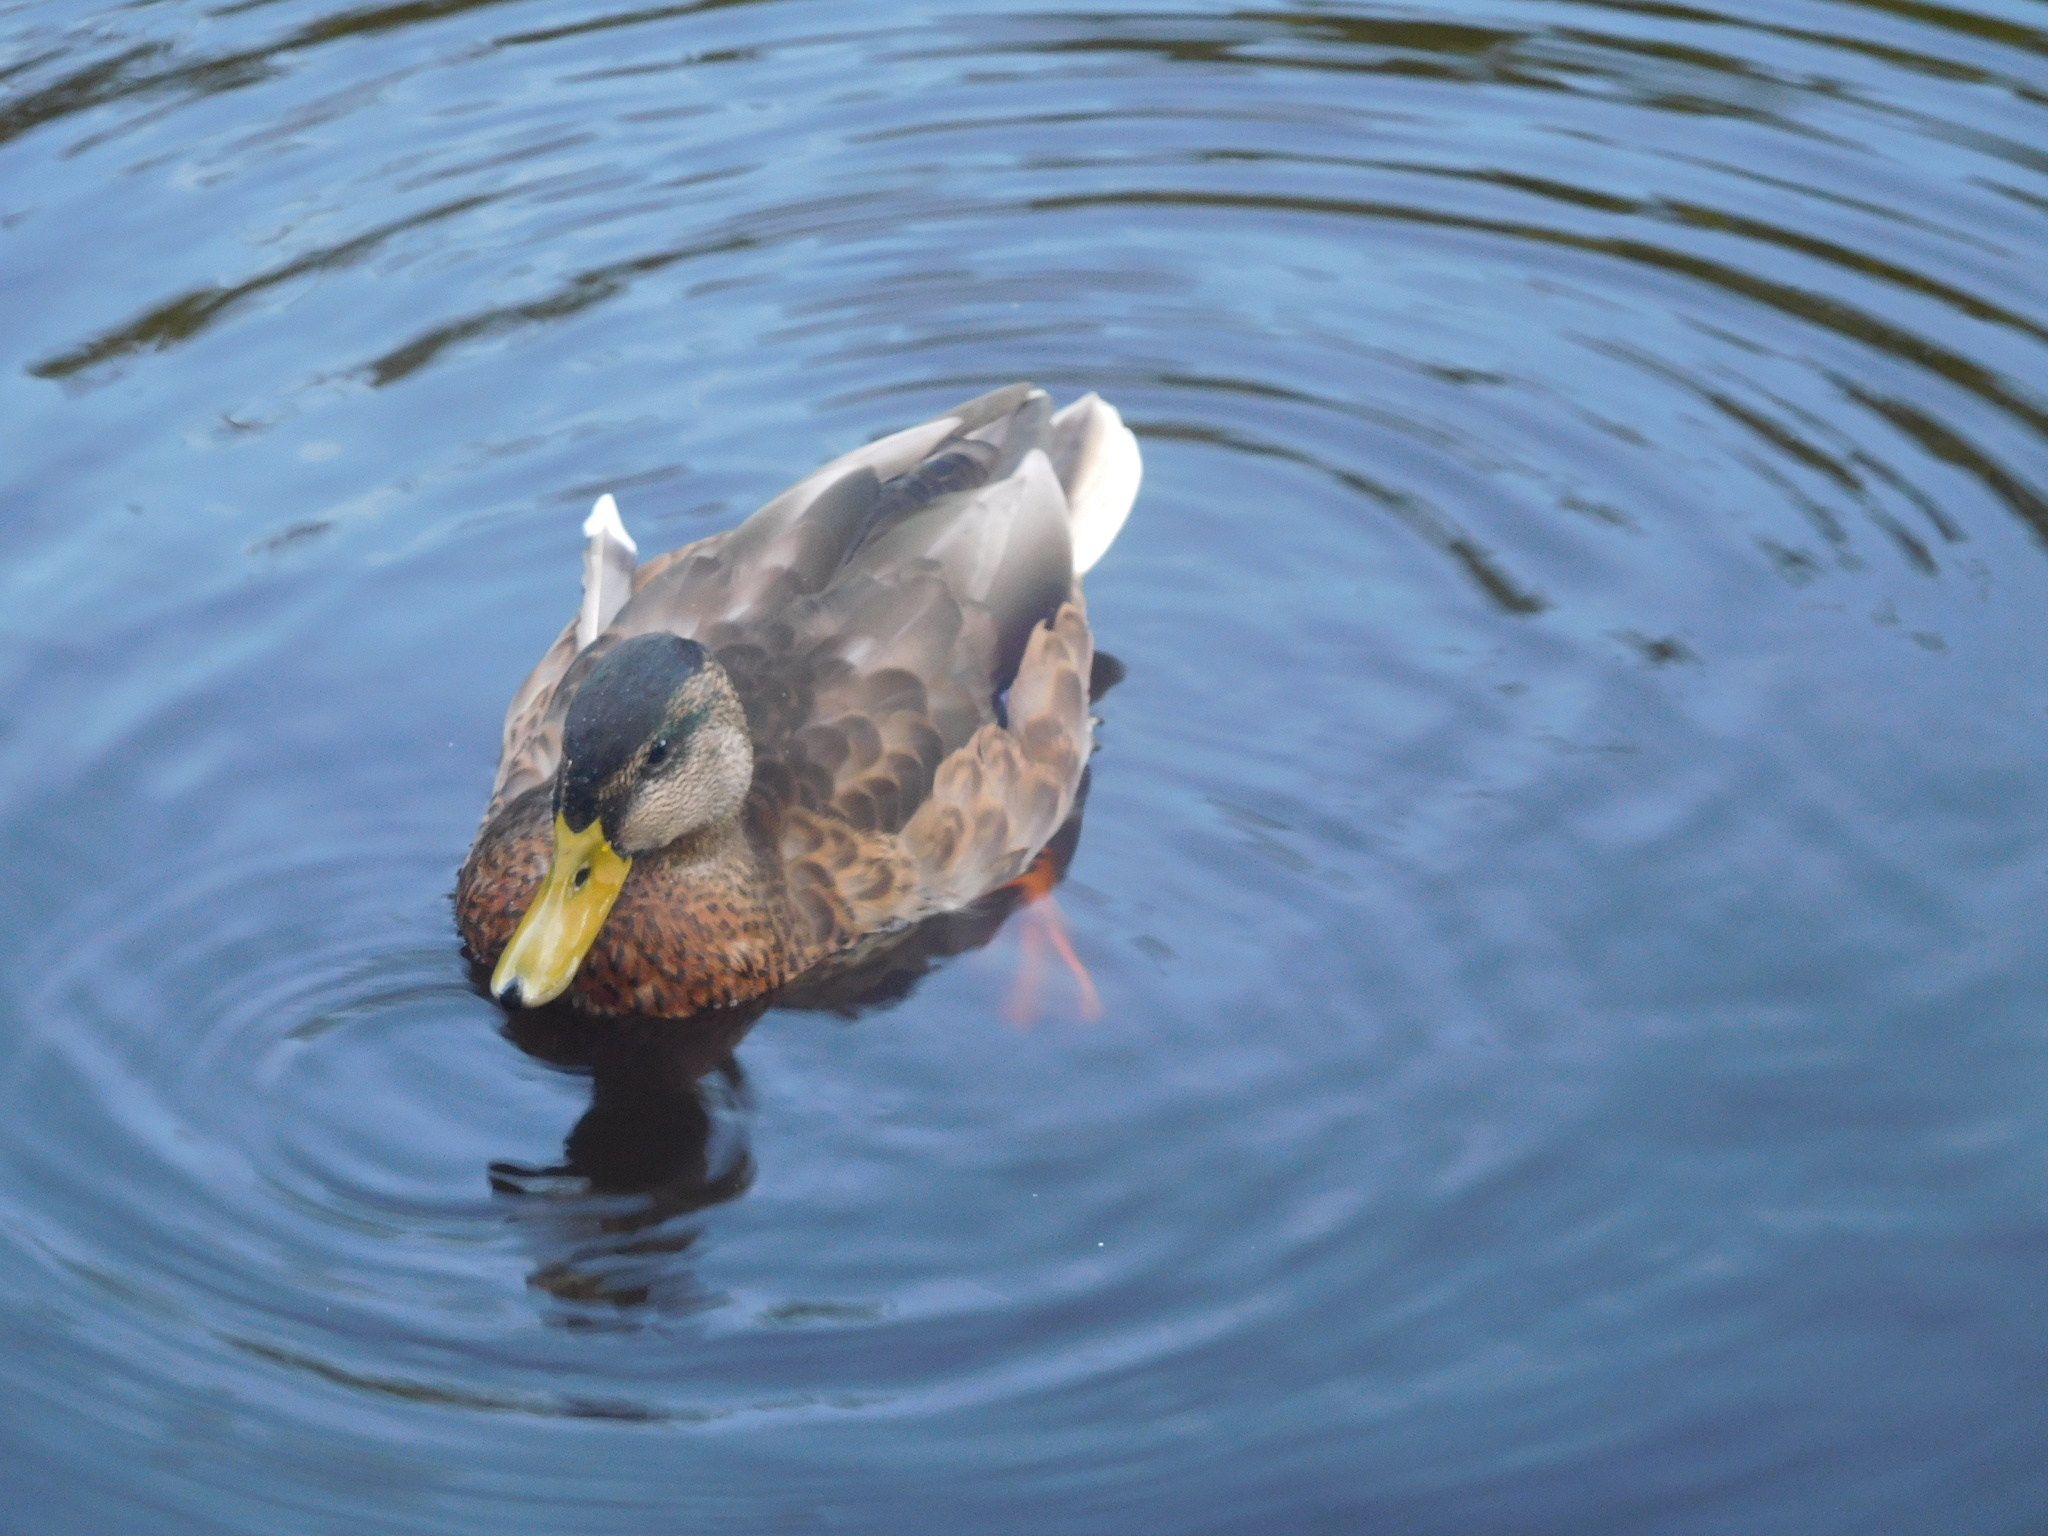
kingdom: Animalia
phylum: Chordata
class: Aves
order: Anseriformes
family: Anatidae
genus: Anas
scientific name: Anas platyrhynchos
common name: Mallard
